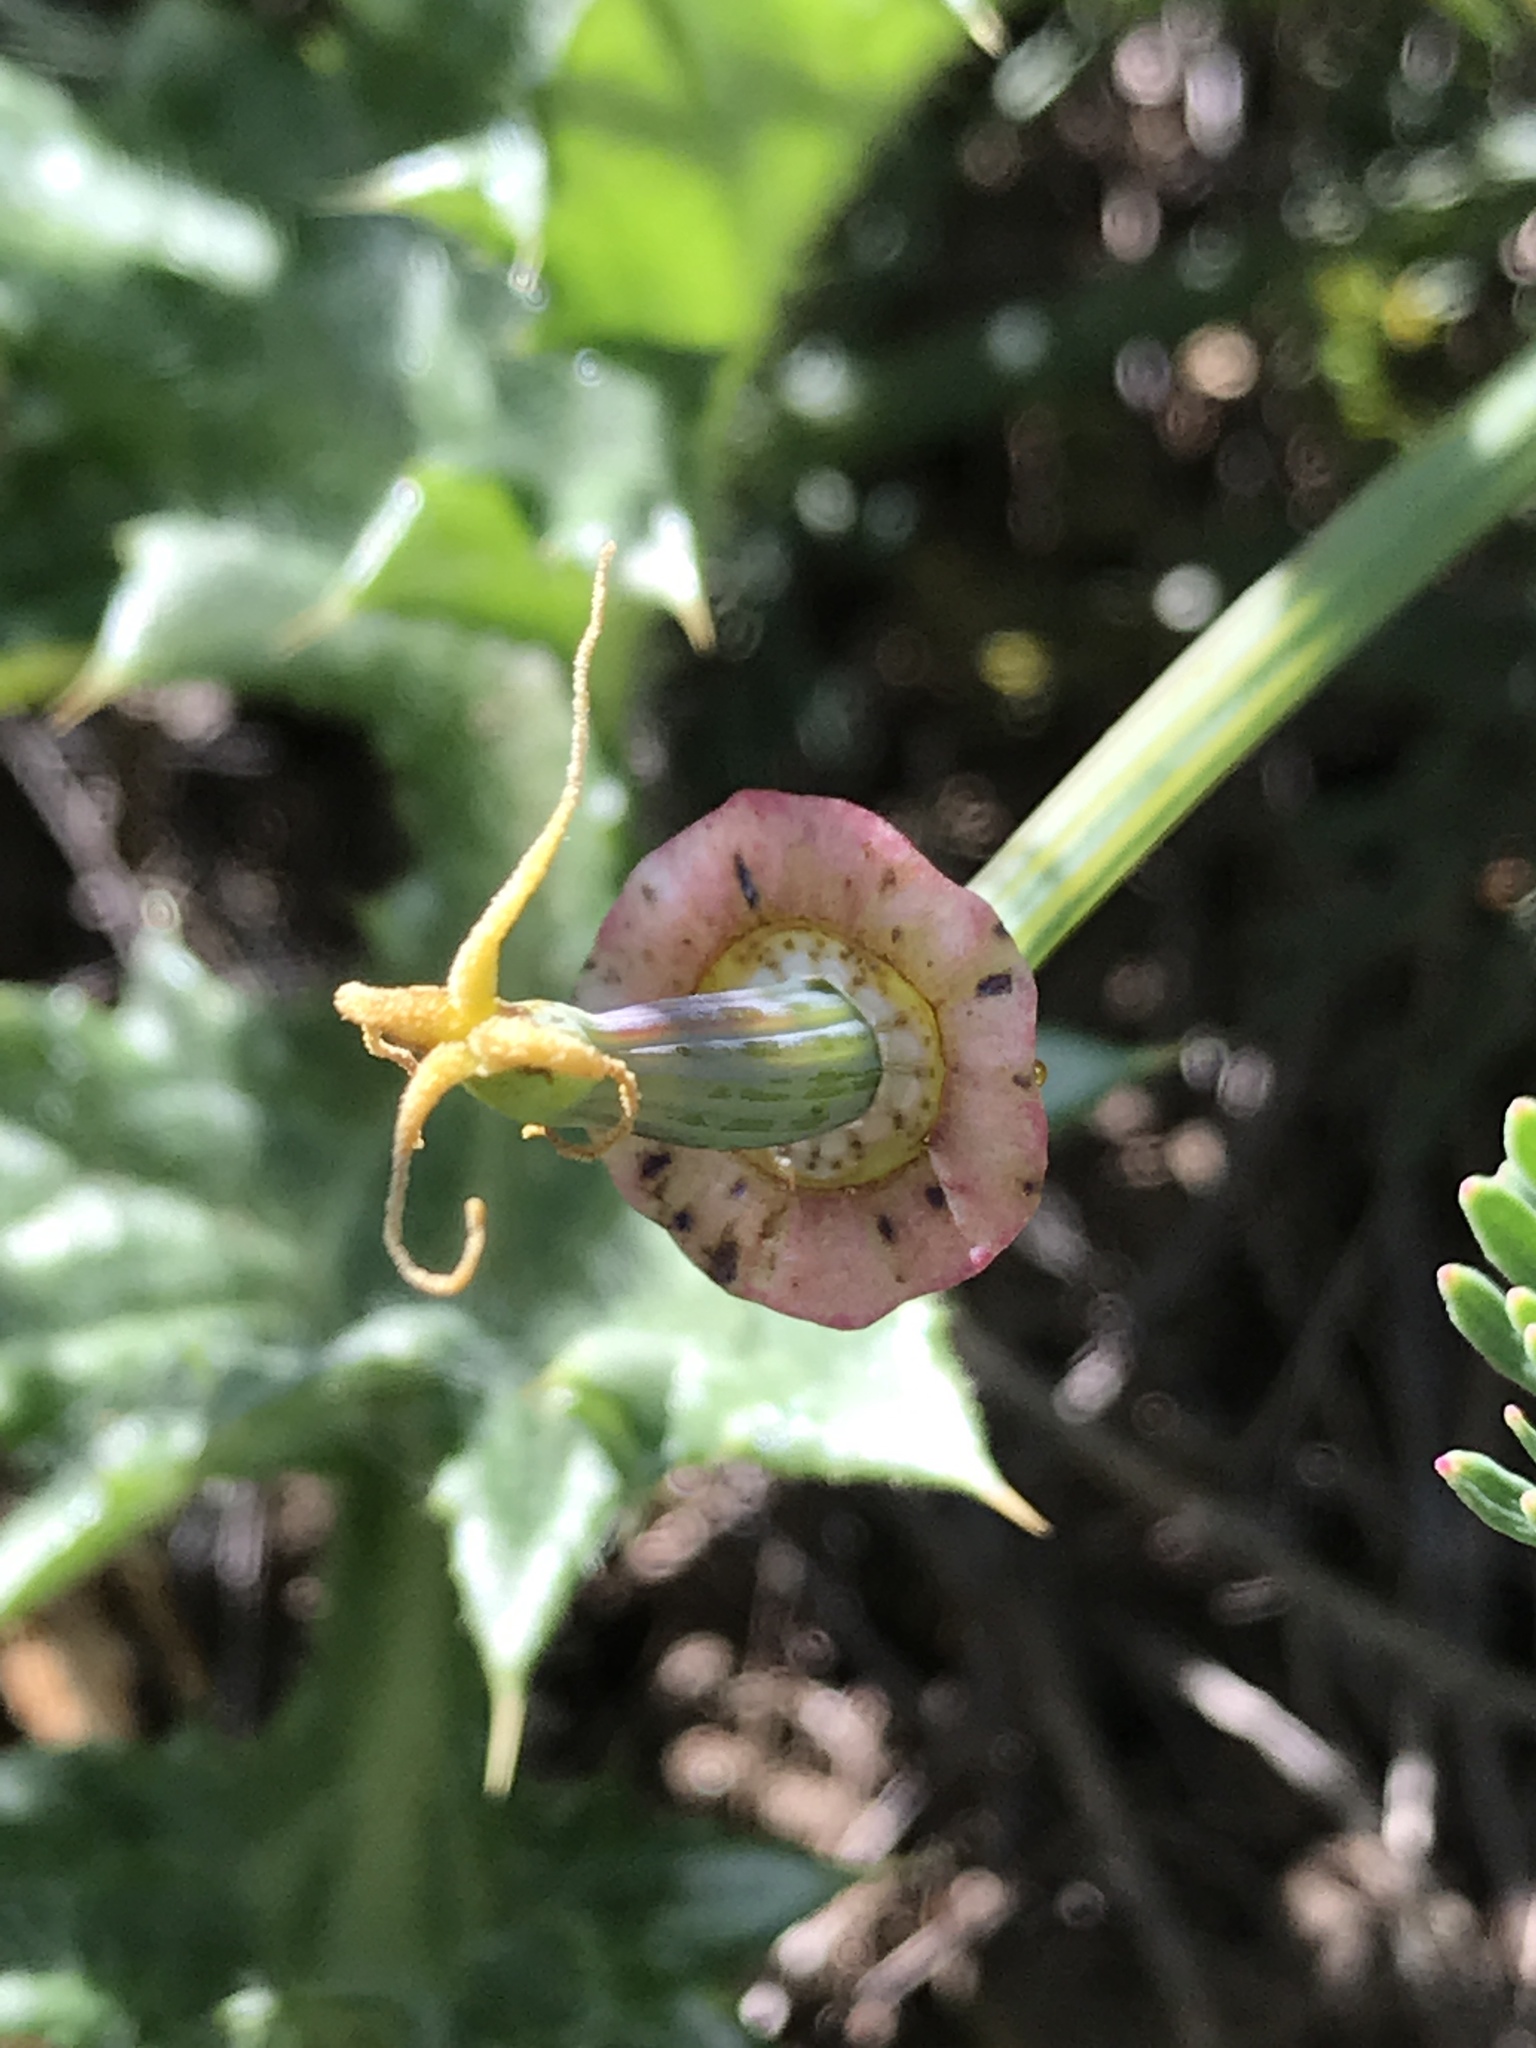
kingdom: Plantae
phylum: Tracheophyta
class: Magnoliopsida
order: Ranunculales
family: Papaveraceae
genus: Eschscholzia
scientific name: Eschscholzia californica
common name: California poppy
